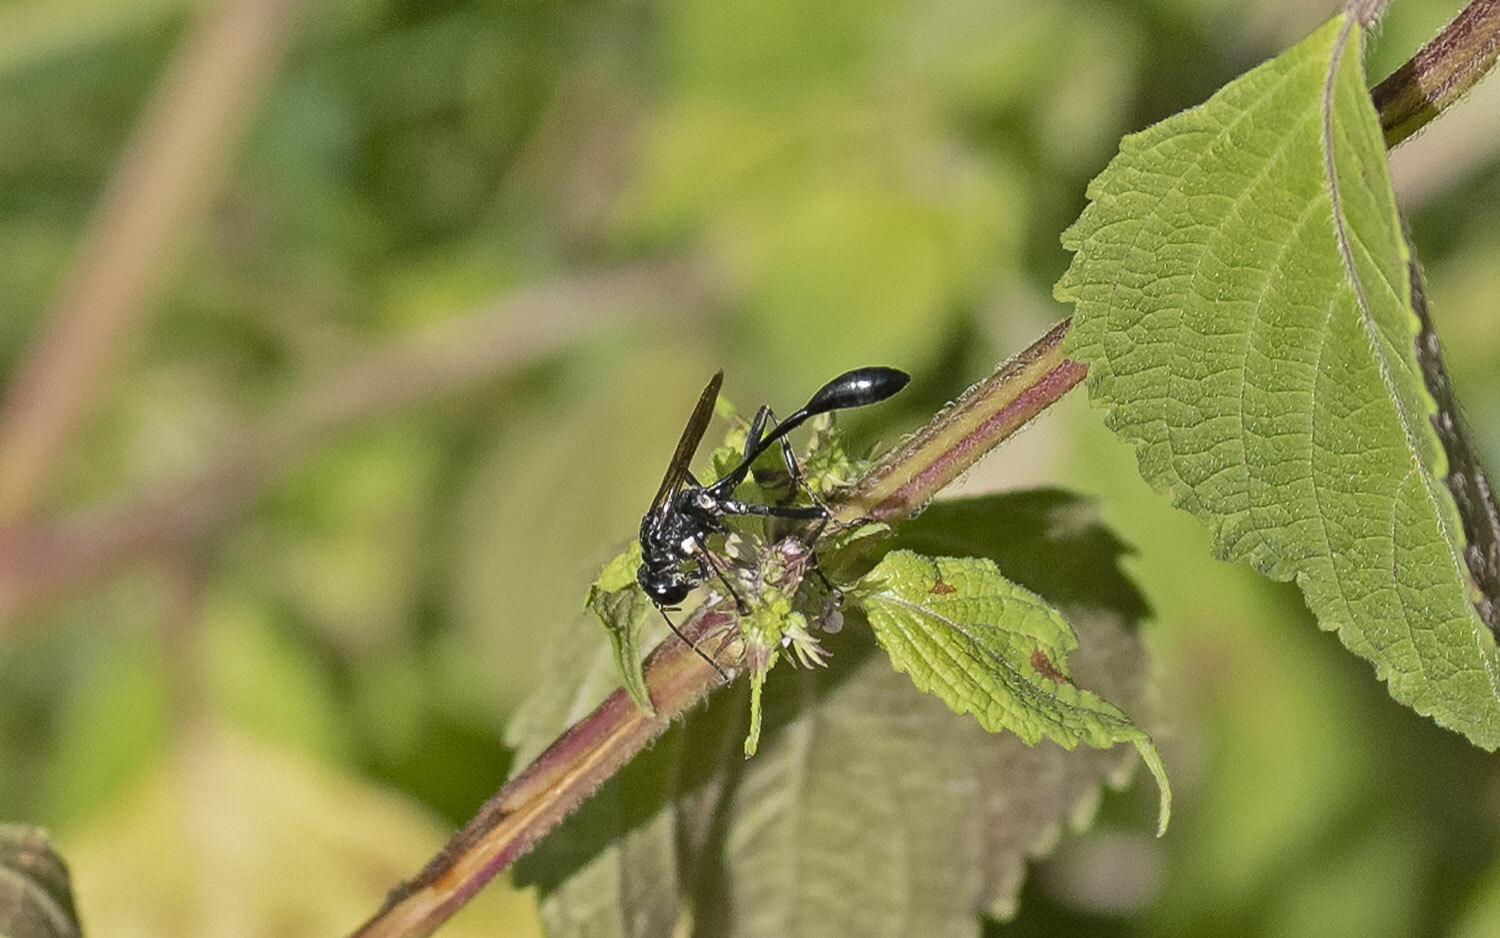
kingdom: Animalia
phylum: Arthropoda
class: Insecta
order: Hymenoptera
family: Sphecidae
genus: Eremnophila
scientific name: Eremnophila aureonotata
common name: Gold-marked thread-waisted wasp
